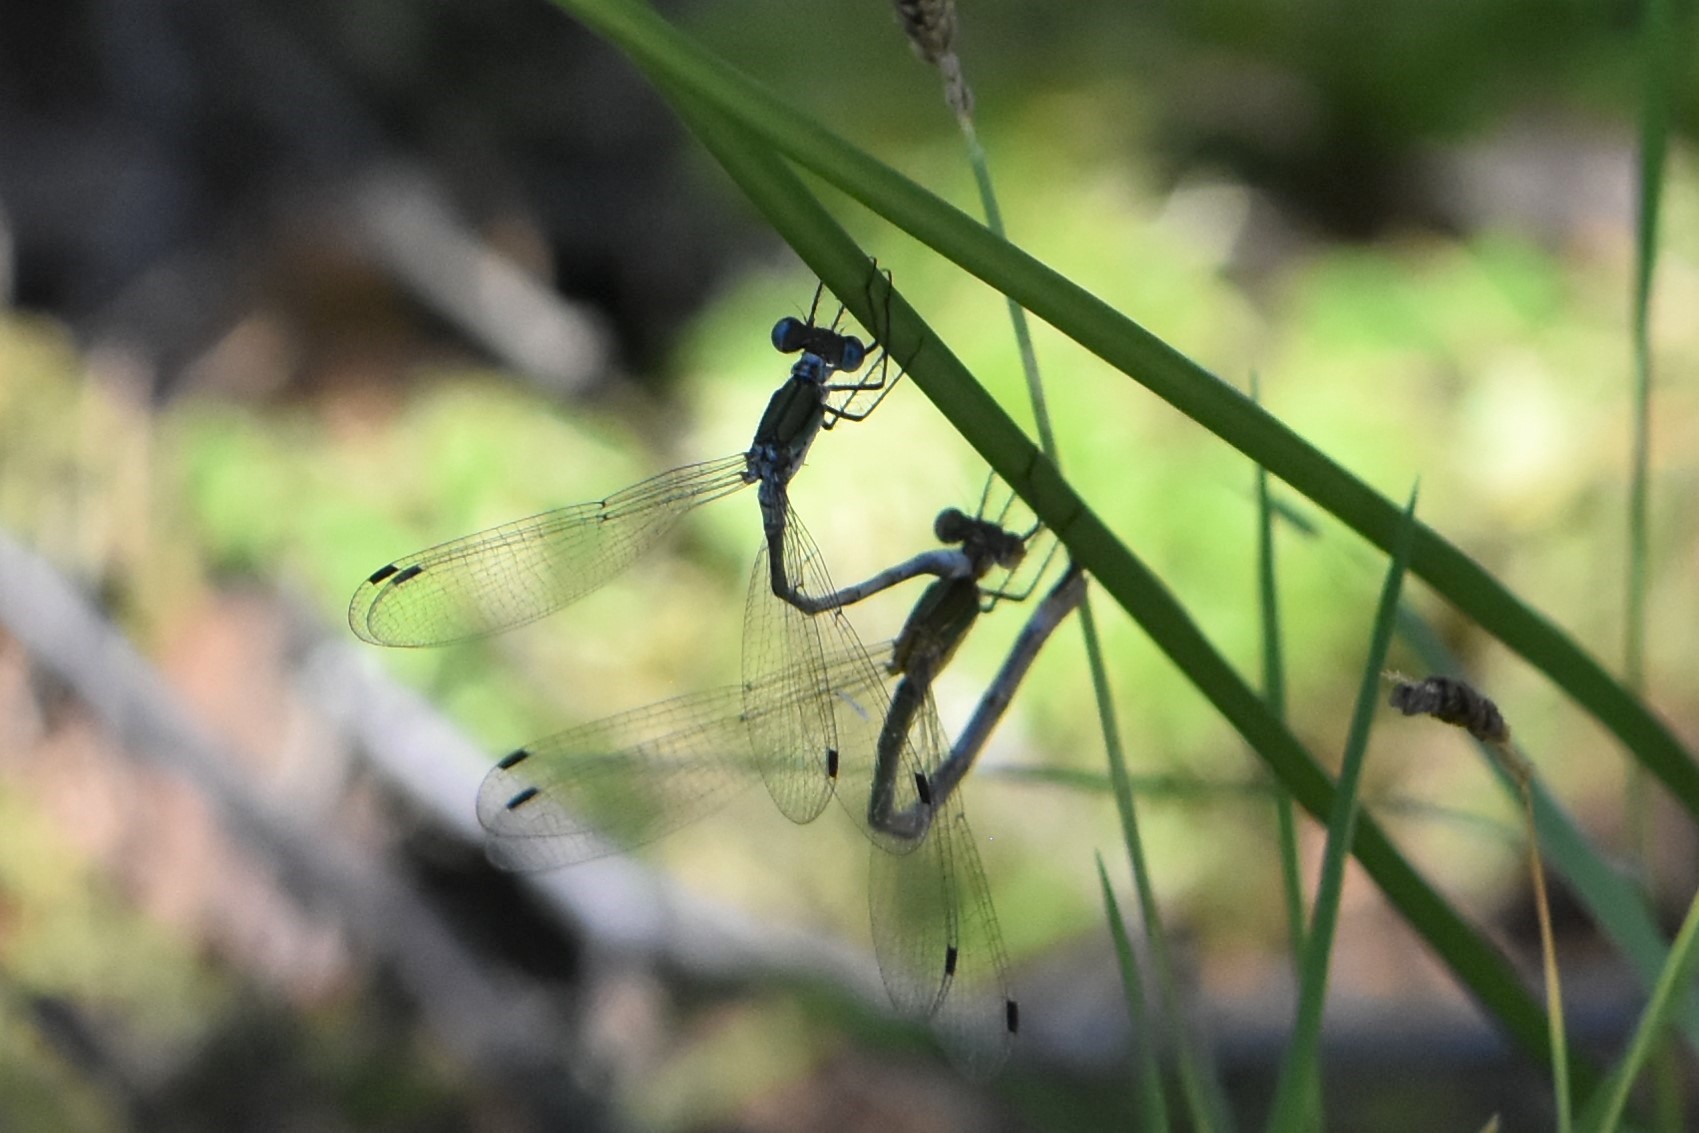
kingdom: Animalia
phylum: Arthropoda
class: Insecta
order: Odonata
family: Lestidae
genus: Lestes
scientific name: Lestes sponsa
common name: Common spreadwing
